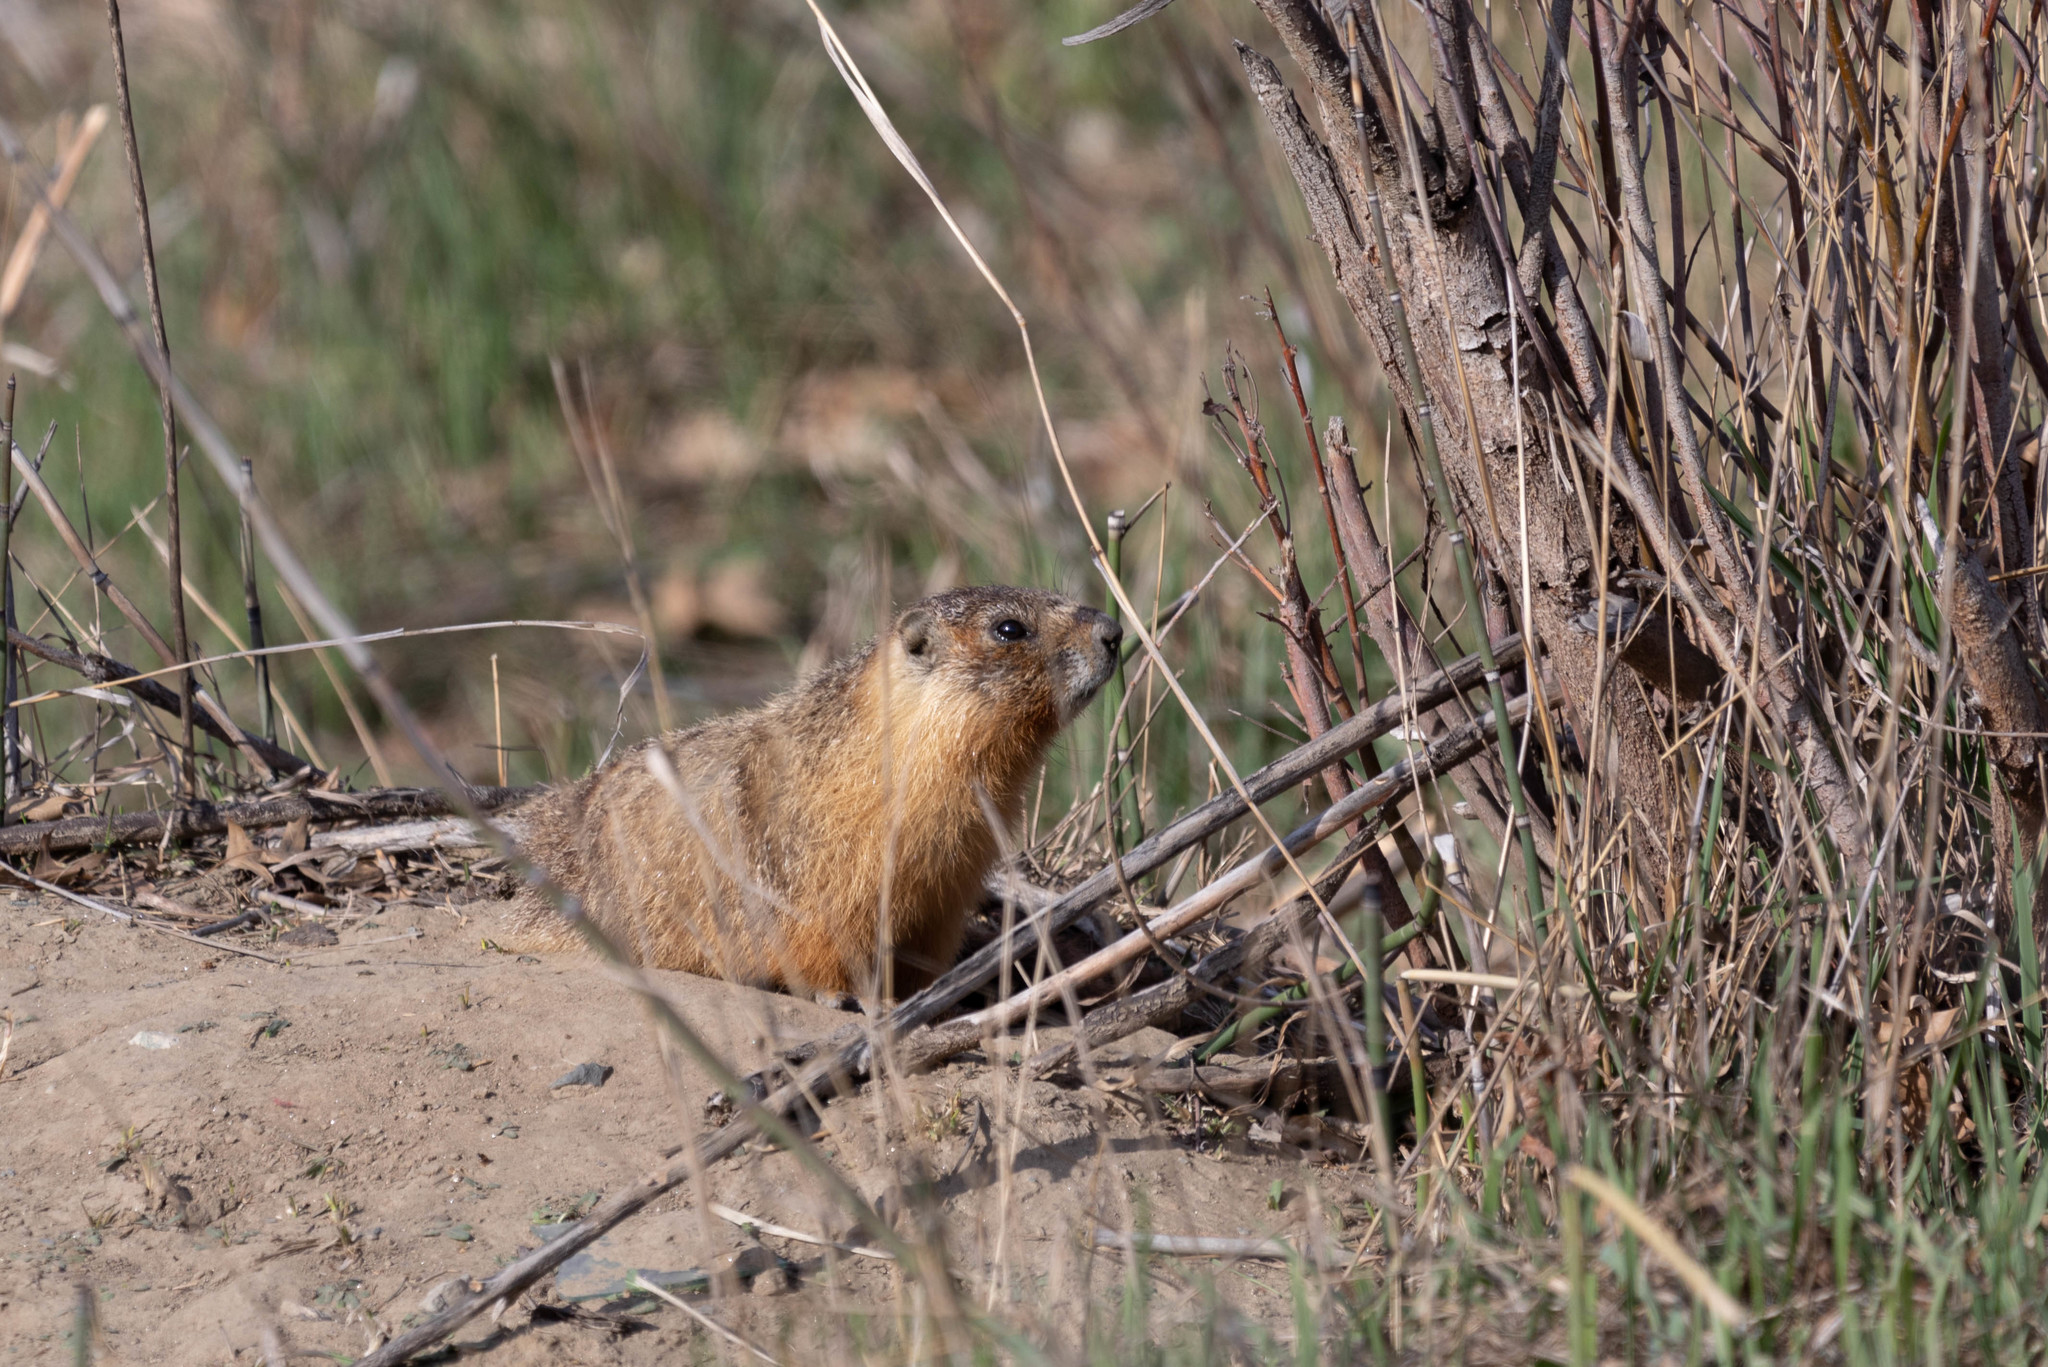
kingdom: Animalia
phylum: Chordata
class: Mammalia
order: Rodentia
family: Sciuridae
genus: Marmota
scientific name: Marmota flaviventris
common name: Yellow-bellied marmot
